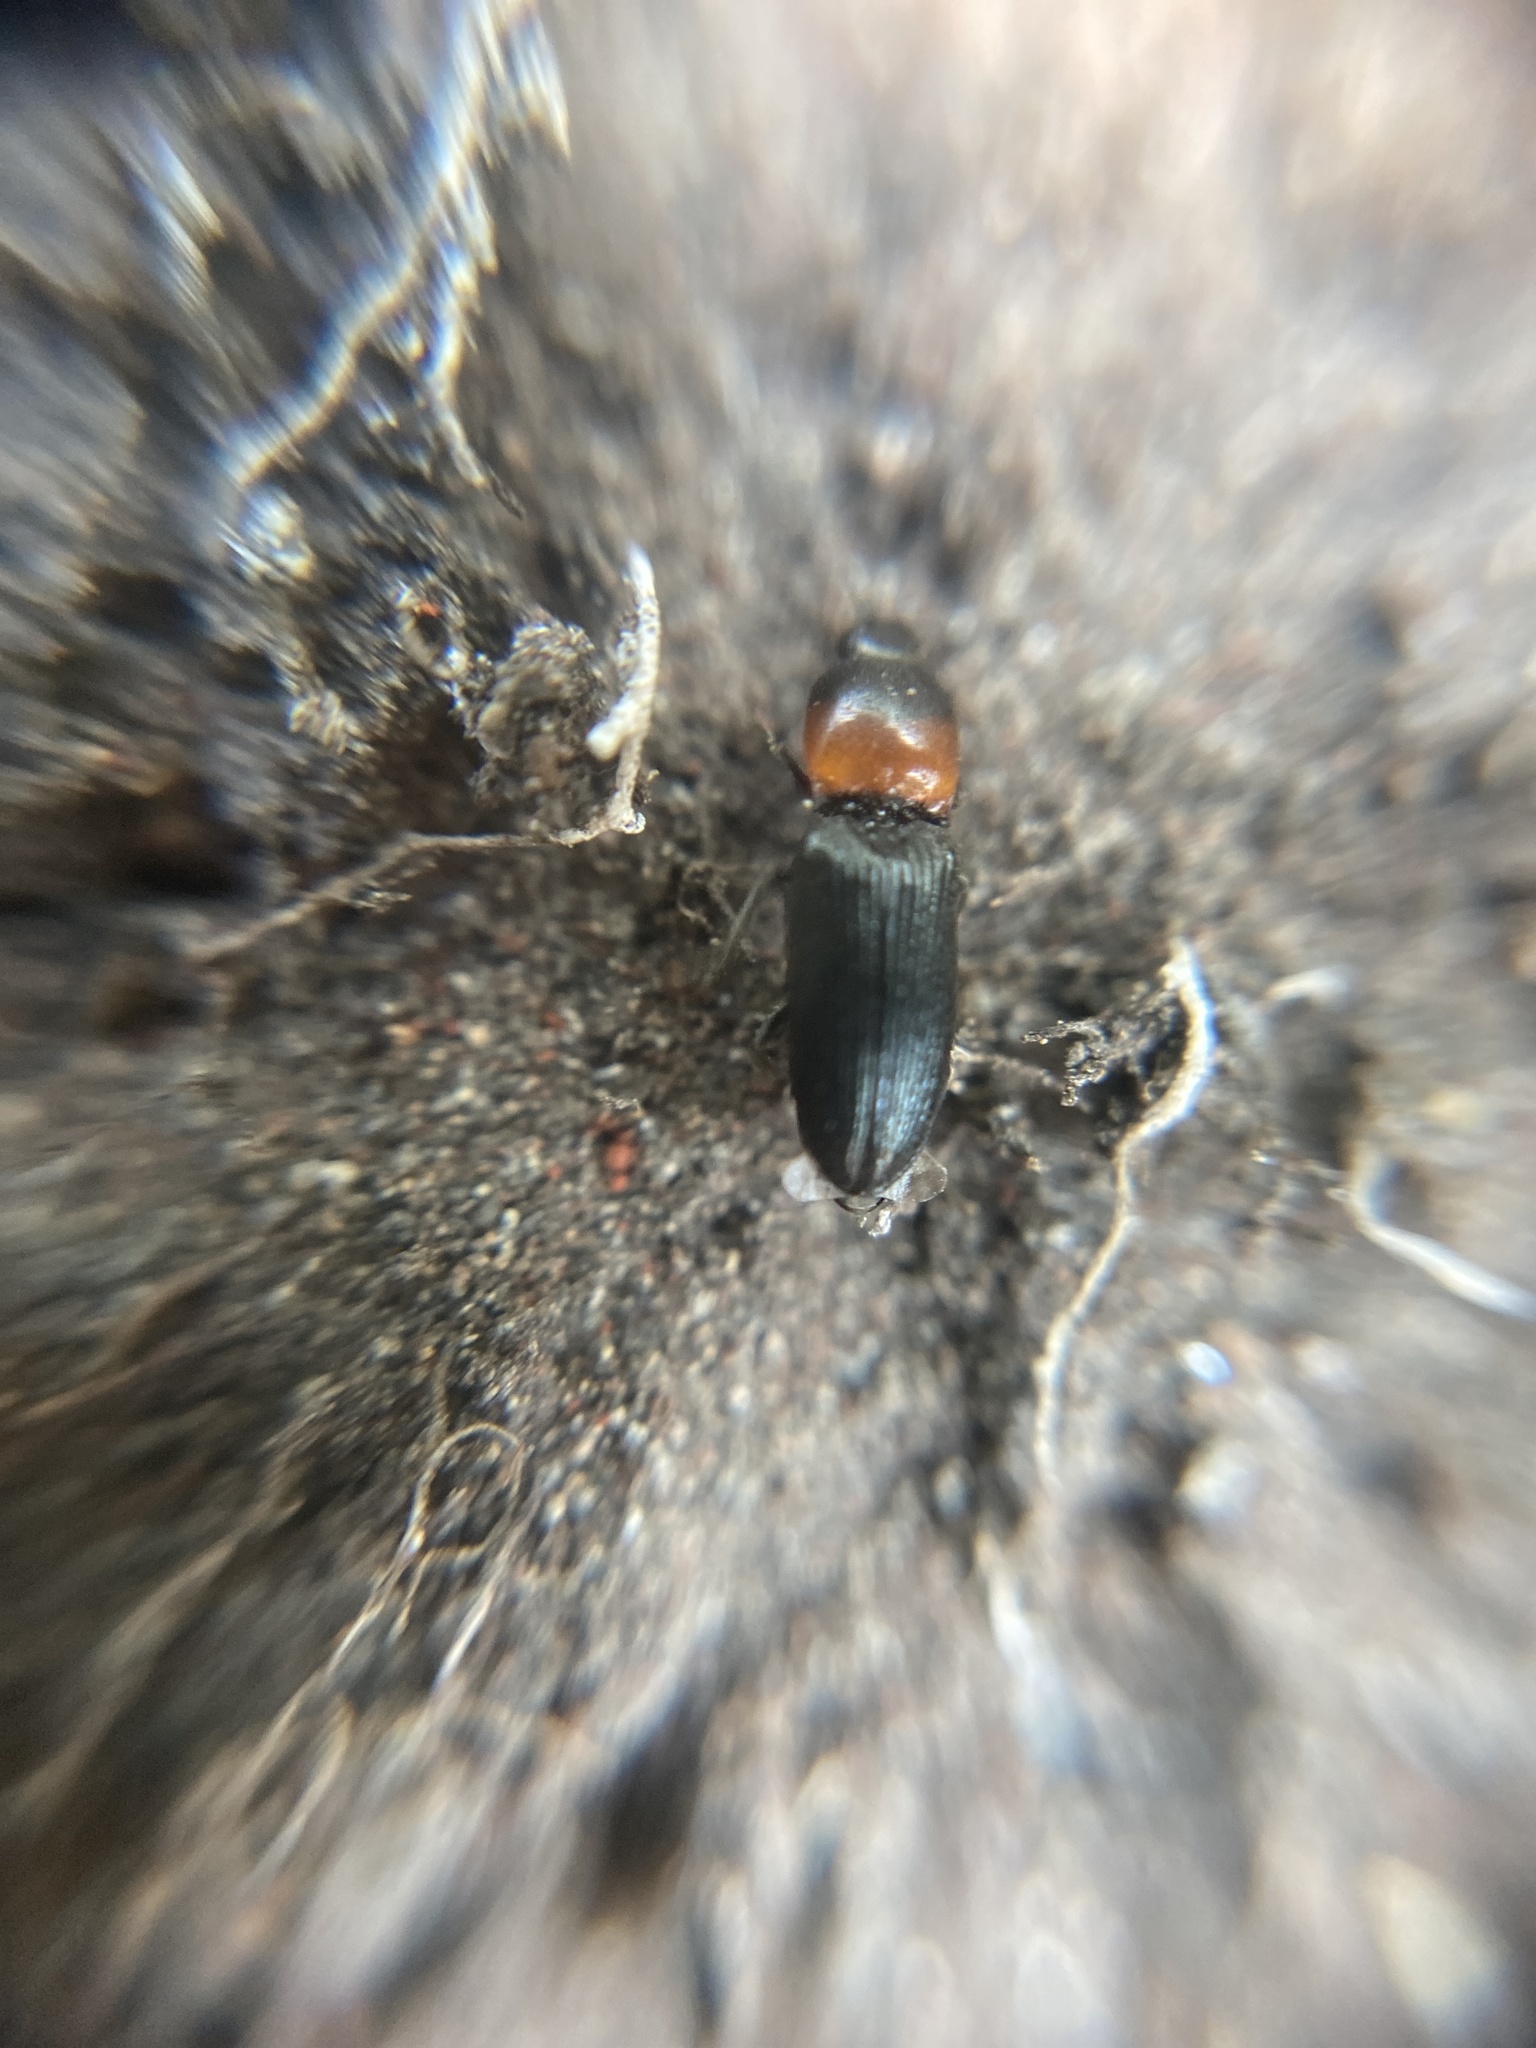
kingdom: Animalia
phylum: Arthropoda
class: Insecta
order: Coleoptera
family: Elateridae
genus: Cardiophorus
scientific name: Cardiophorus ruficollis
